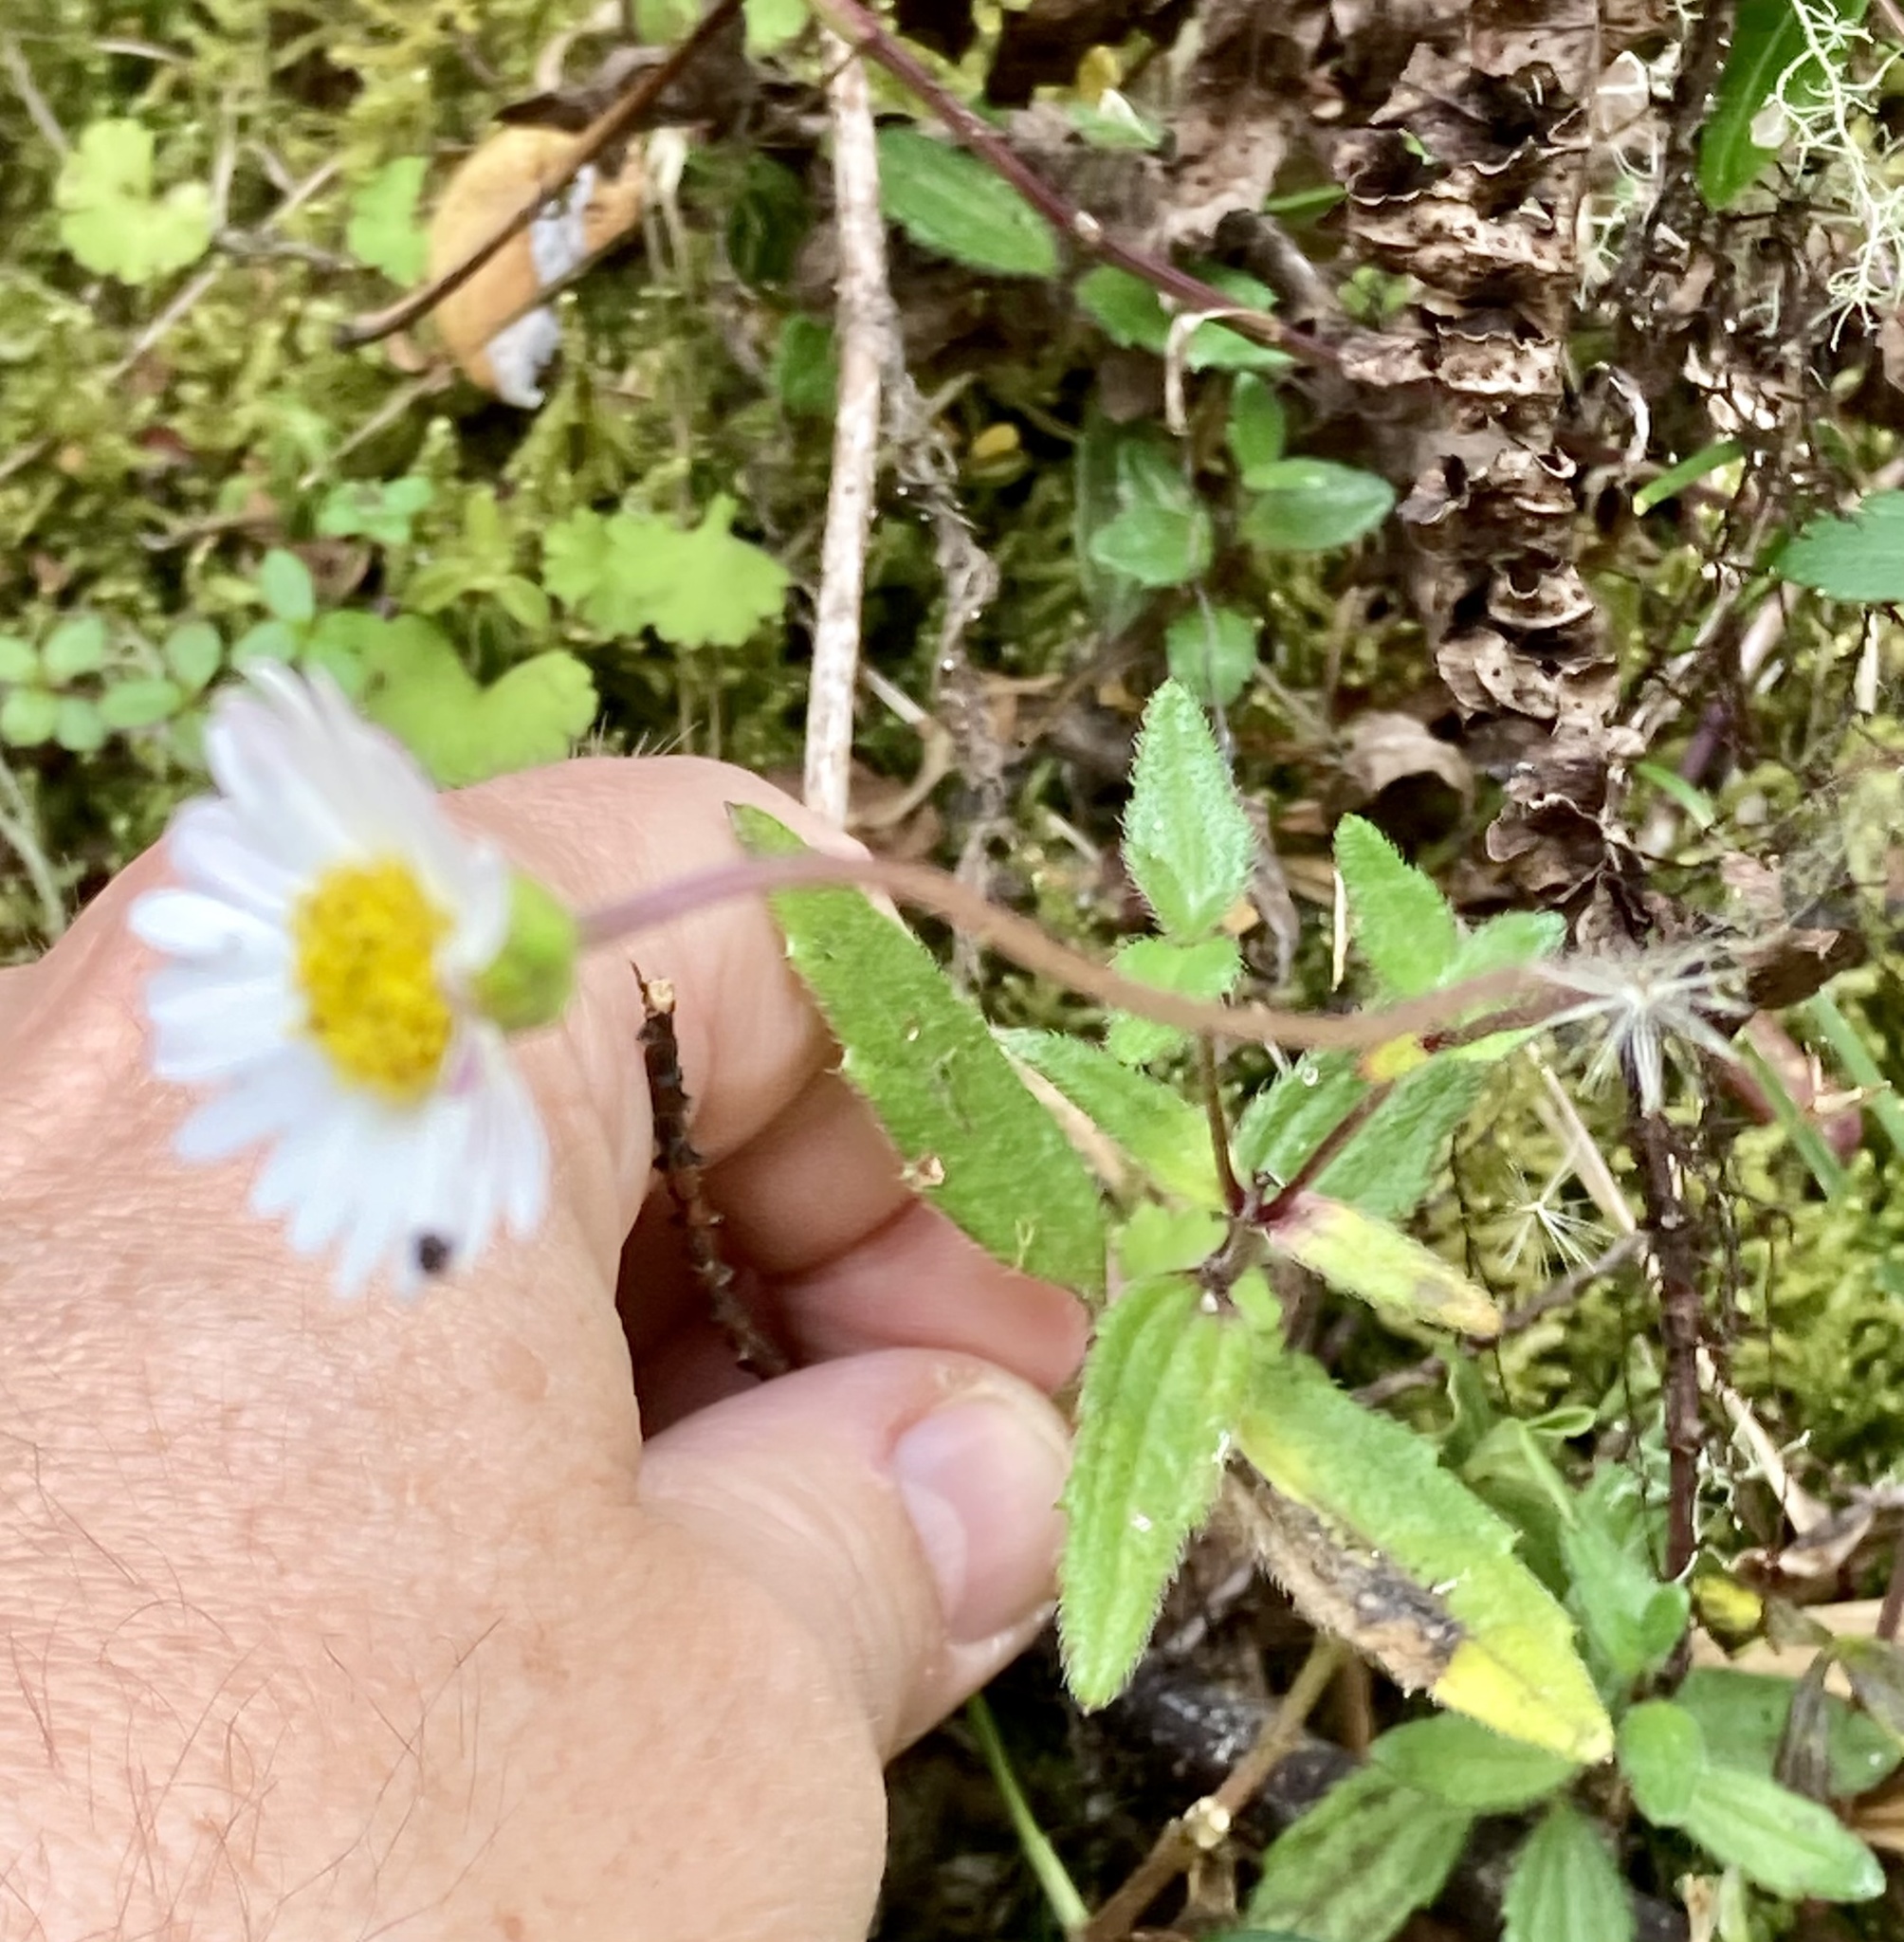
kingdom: Plantae
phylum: Tracheophyta
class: Magnoliopsida
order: Asterales
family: Asteraceae
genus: Sabazia
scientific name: Sabazia trianae
